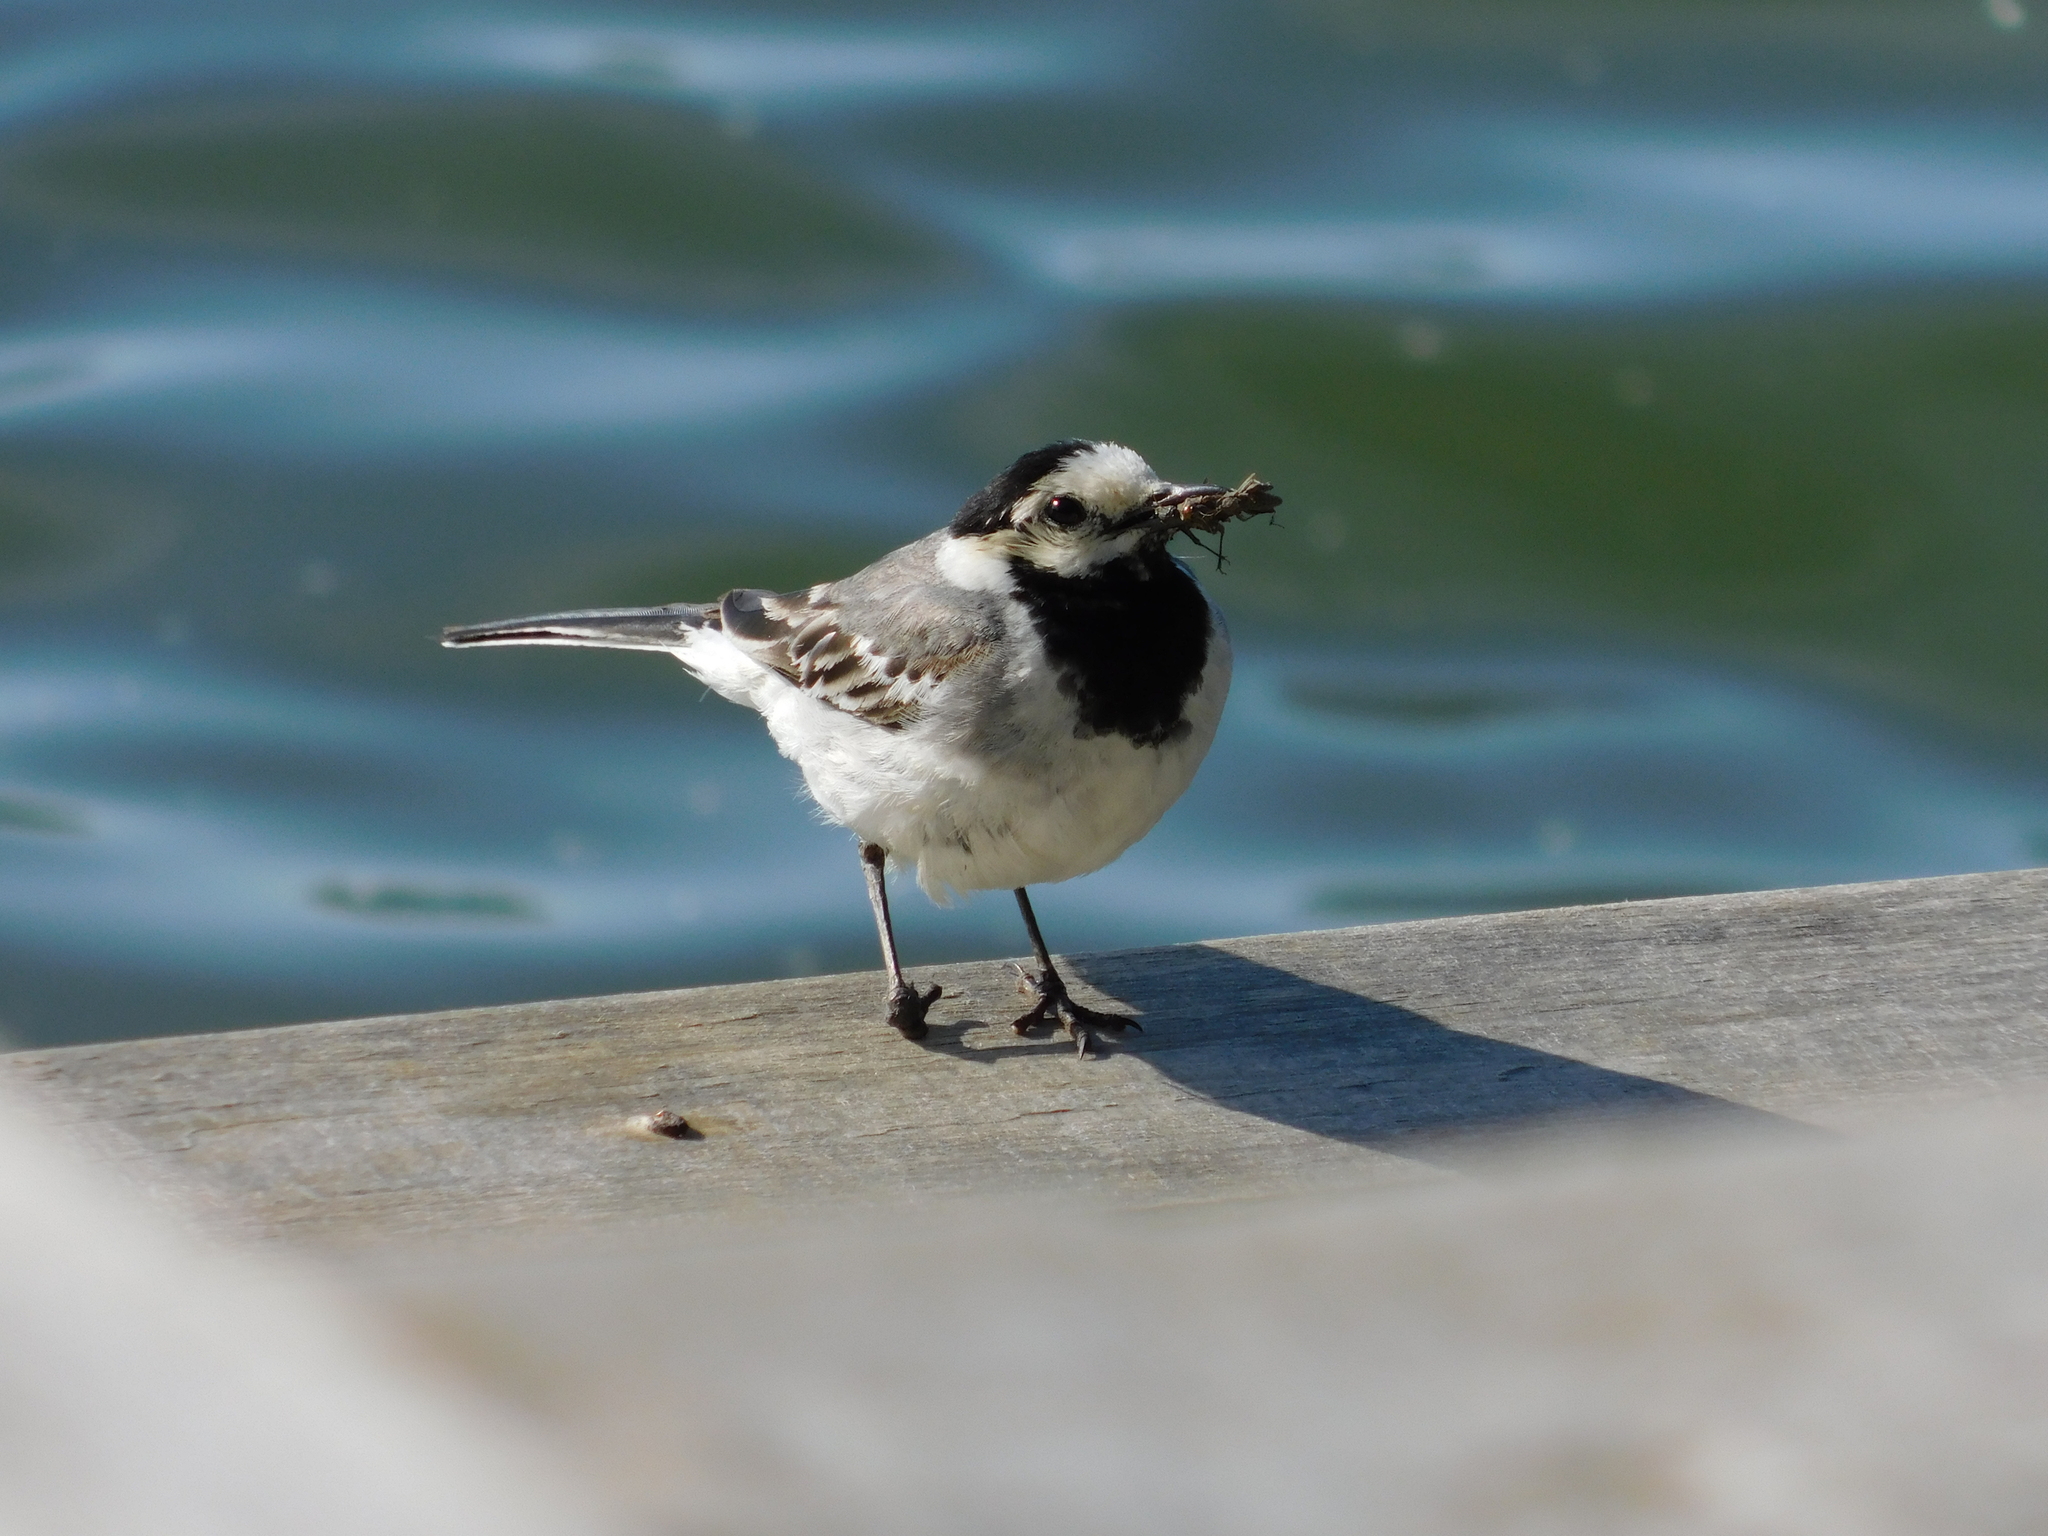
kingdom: Animalia
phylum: Chordata
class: Aves
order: Passeriformes
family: Motacillidae
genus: Motacilla
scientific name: Motacilla alba
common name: White wagtail
